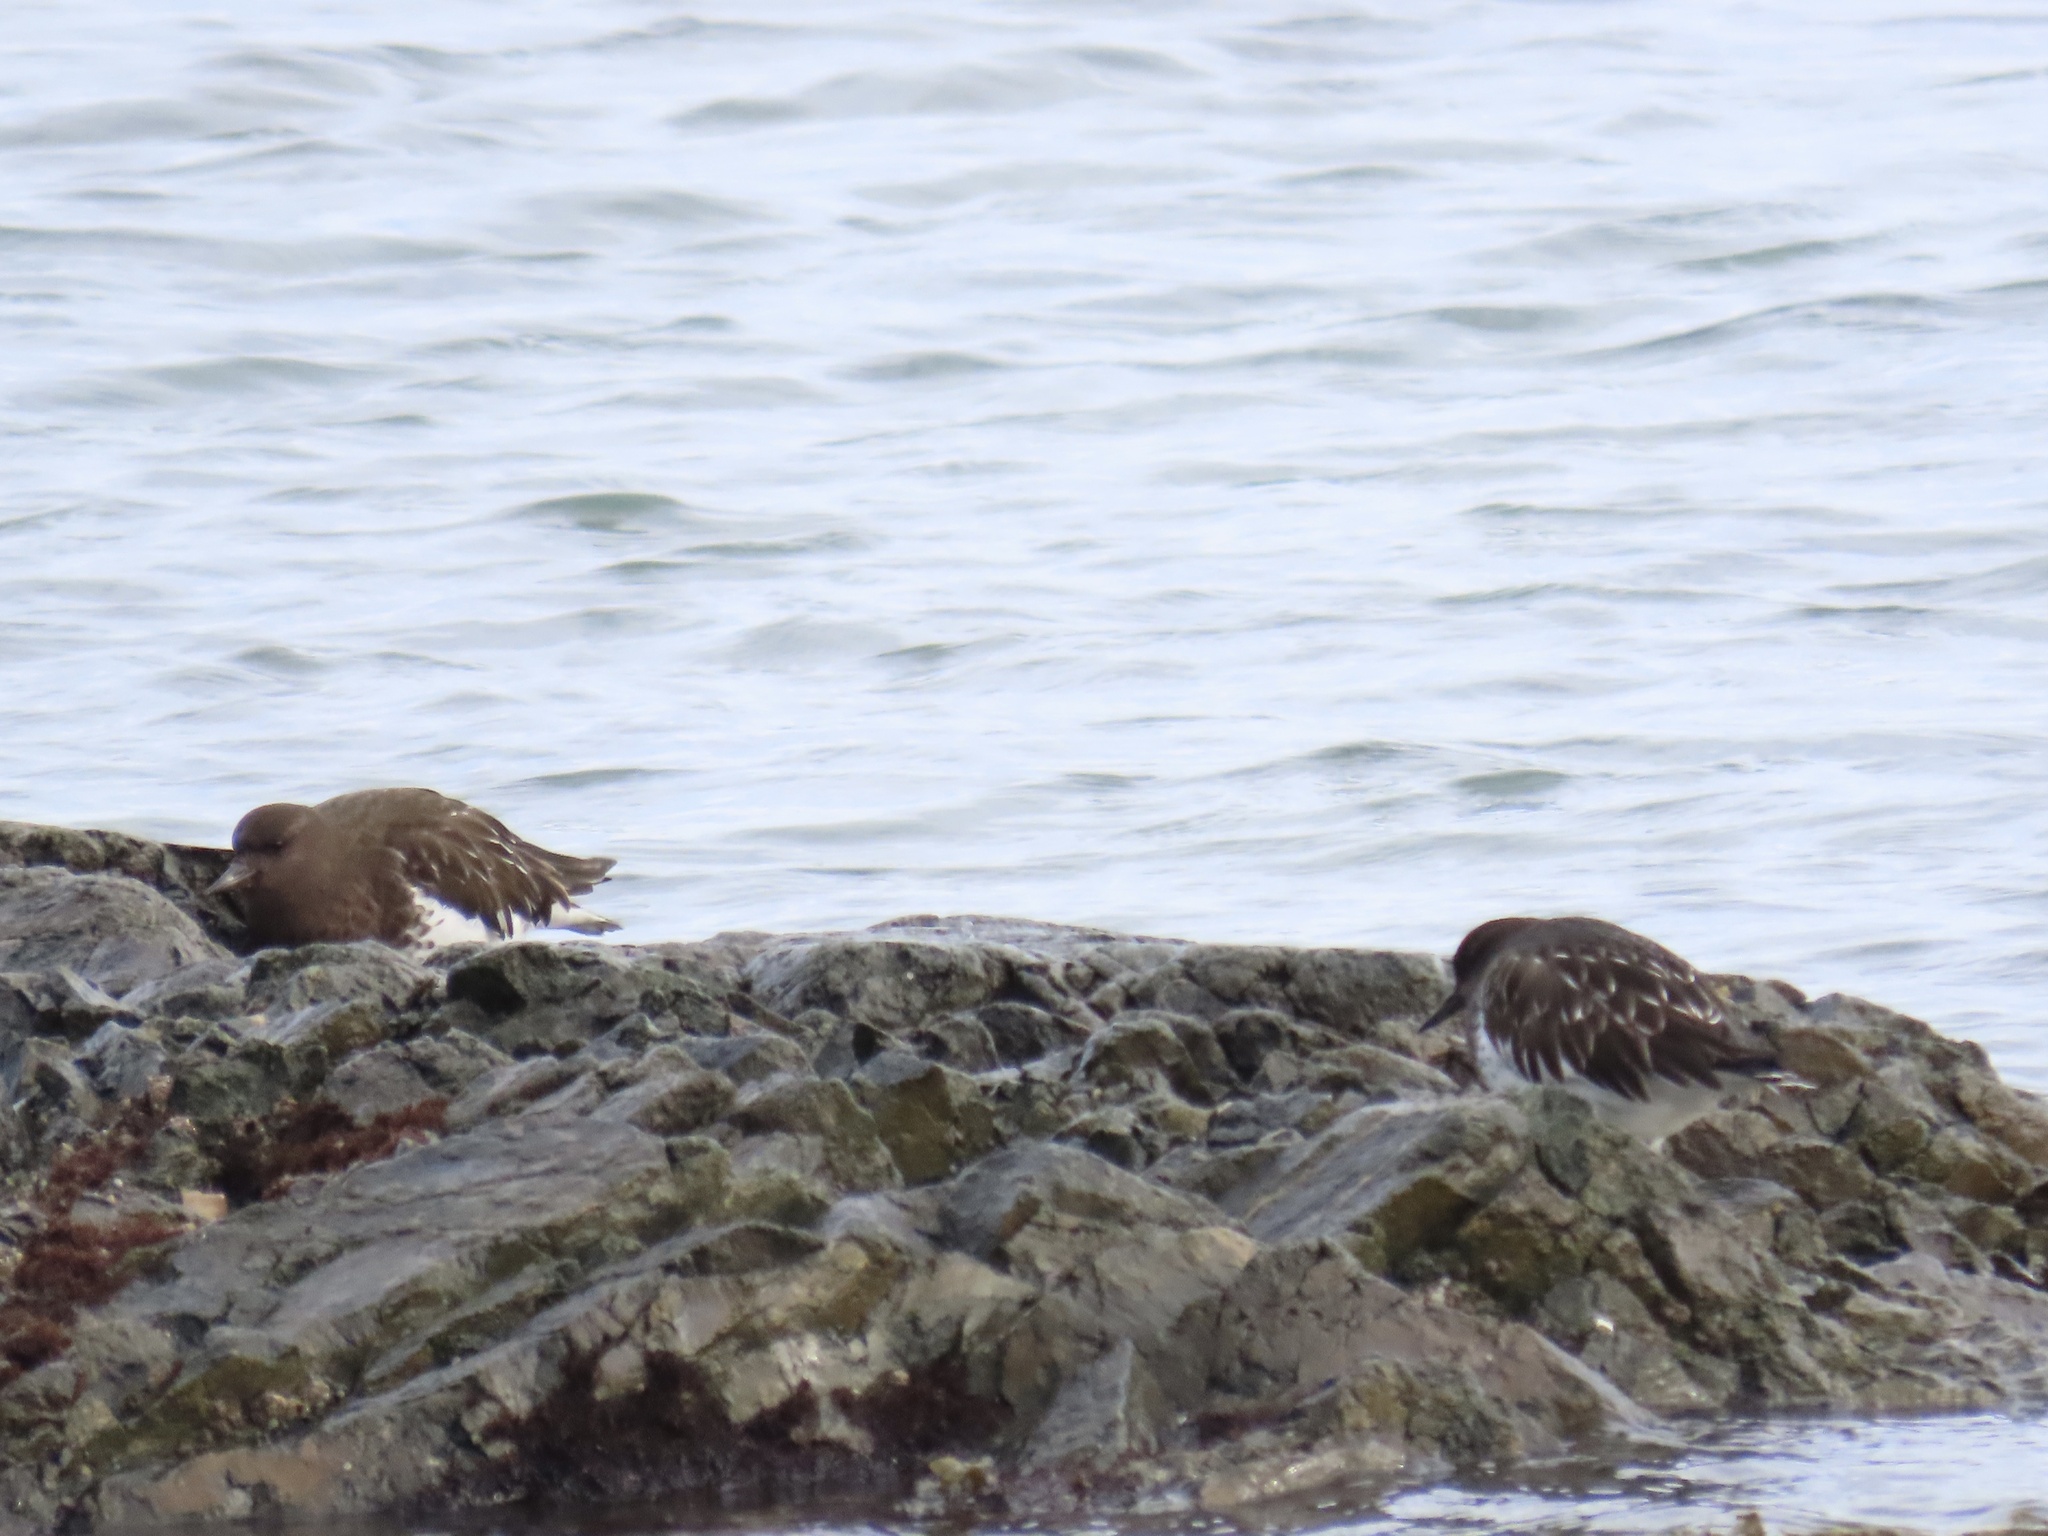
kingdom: Animalia
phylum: Chordata
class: Aves
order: Charadriiformes
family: Scolopacidae
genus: Arenaria
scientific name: Arenaria melanocephala
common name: Black turnstone
